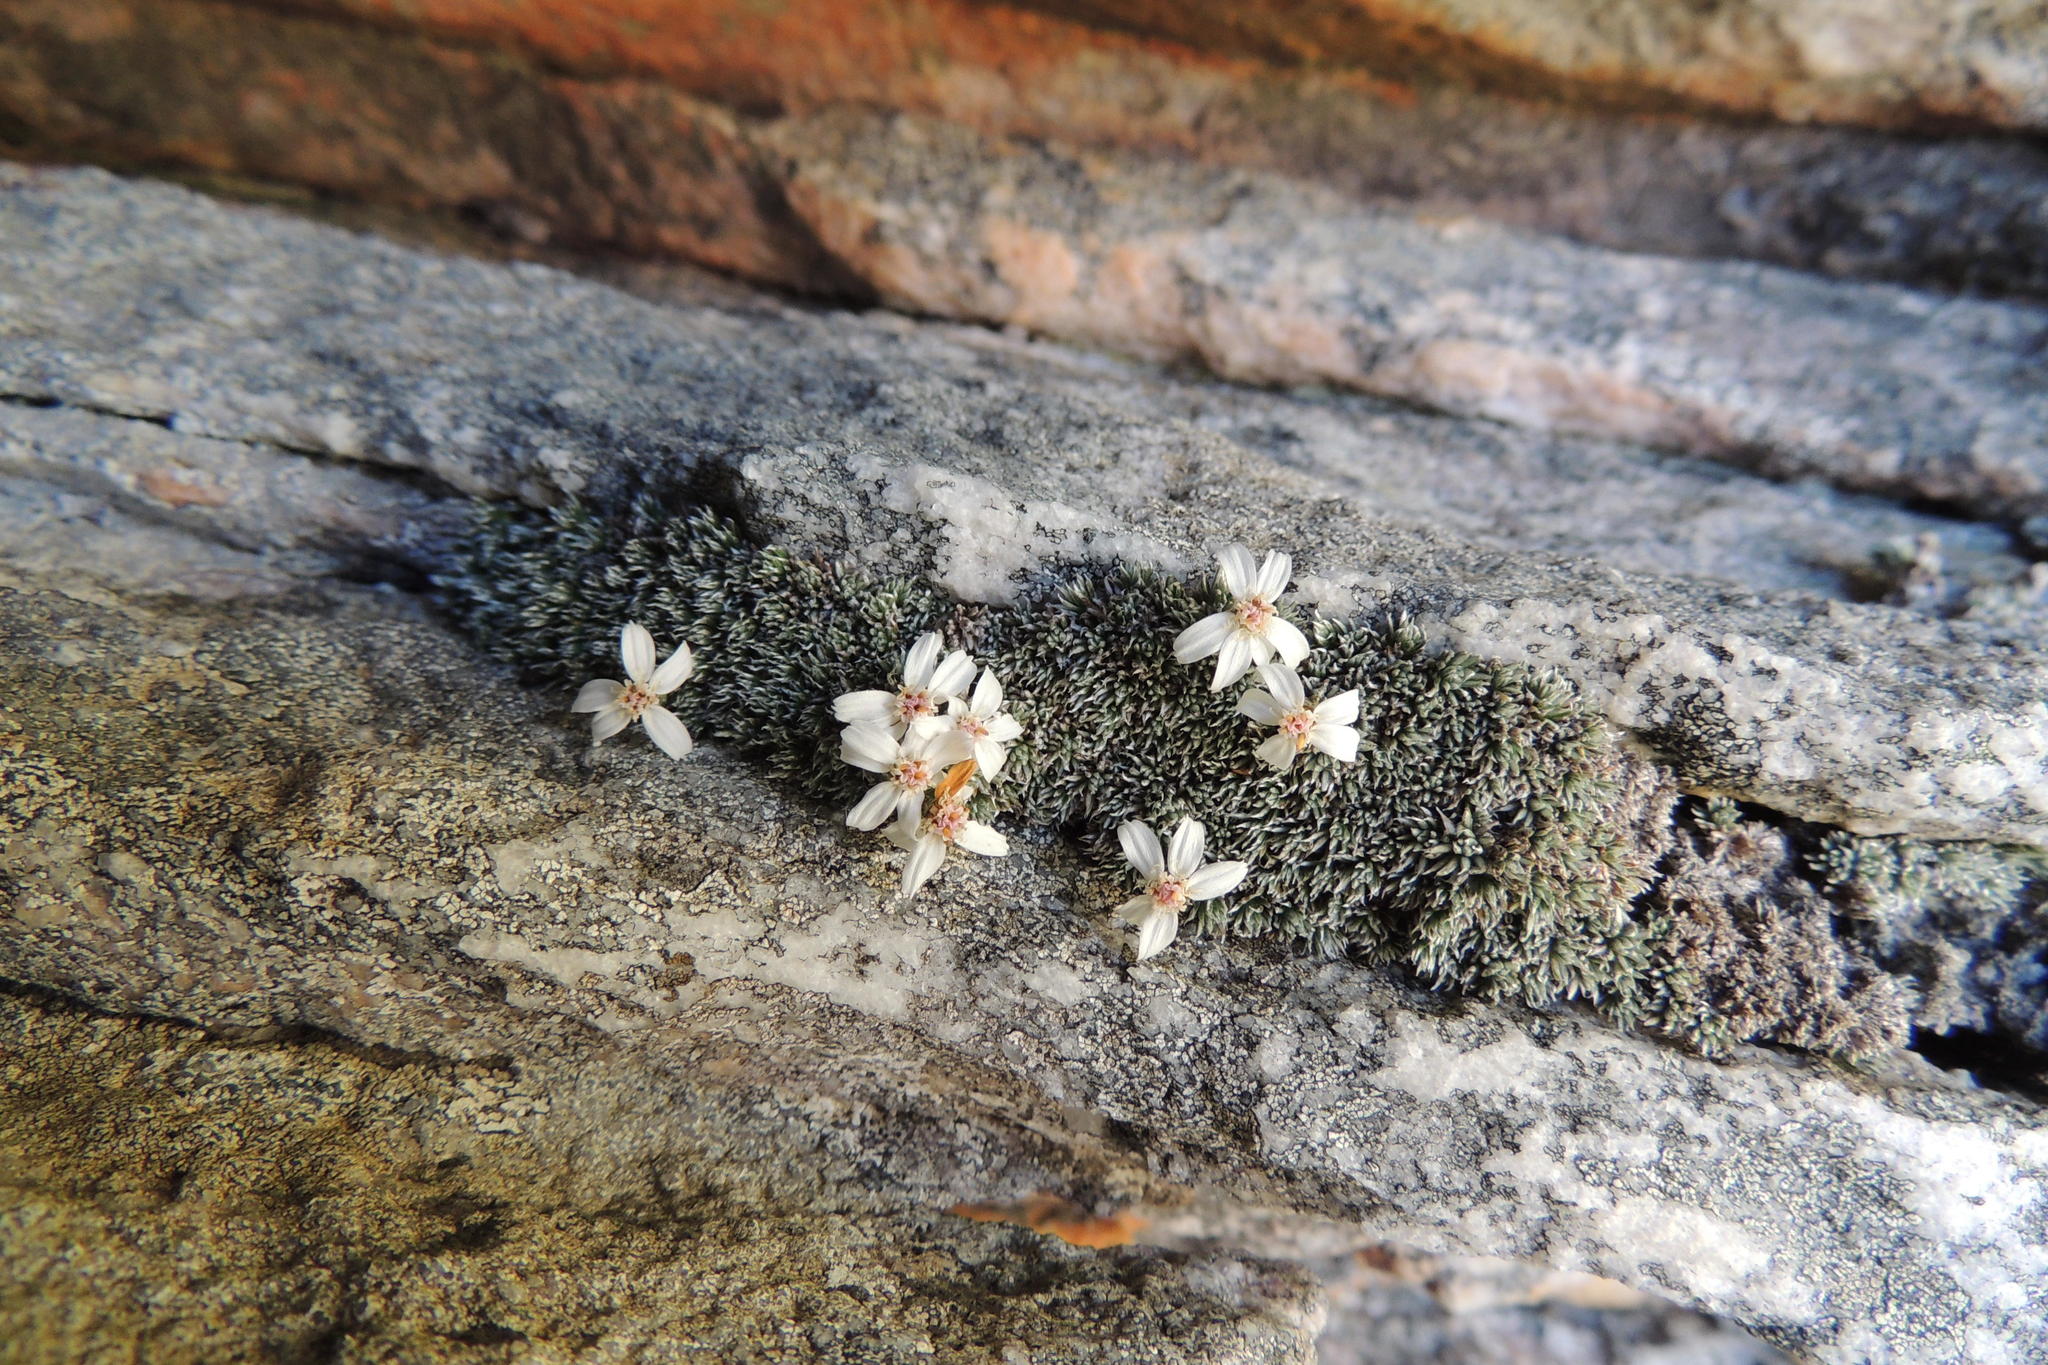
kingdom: Plantae
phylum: Tracheophyta
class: Magnoliopsida
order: Asterales
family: Asteraceae
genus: Muscosomorphe
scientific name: Muscosomorphe aretioides
